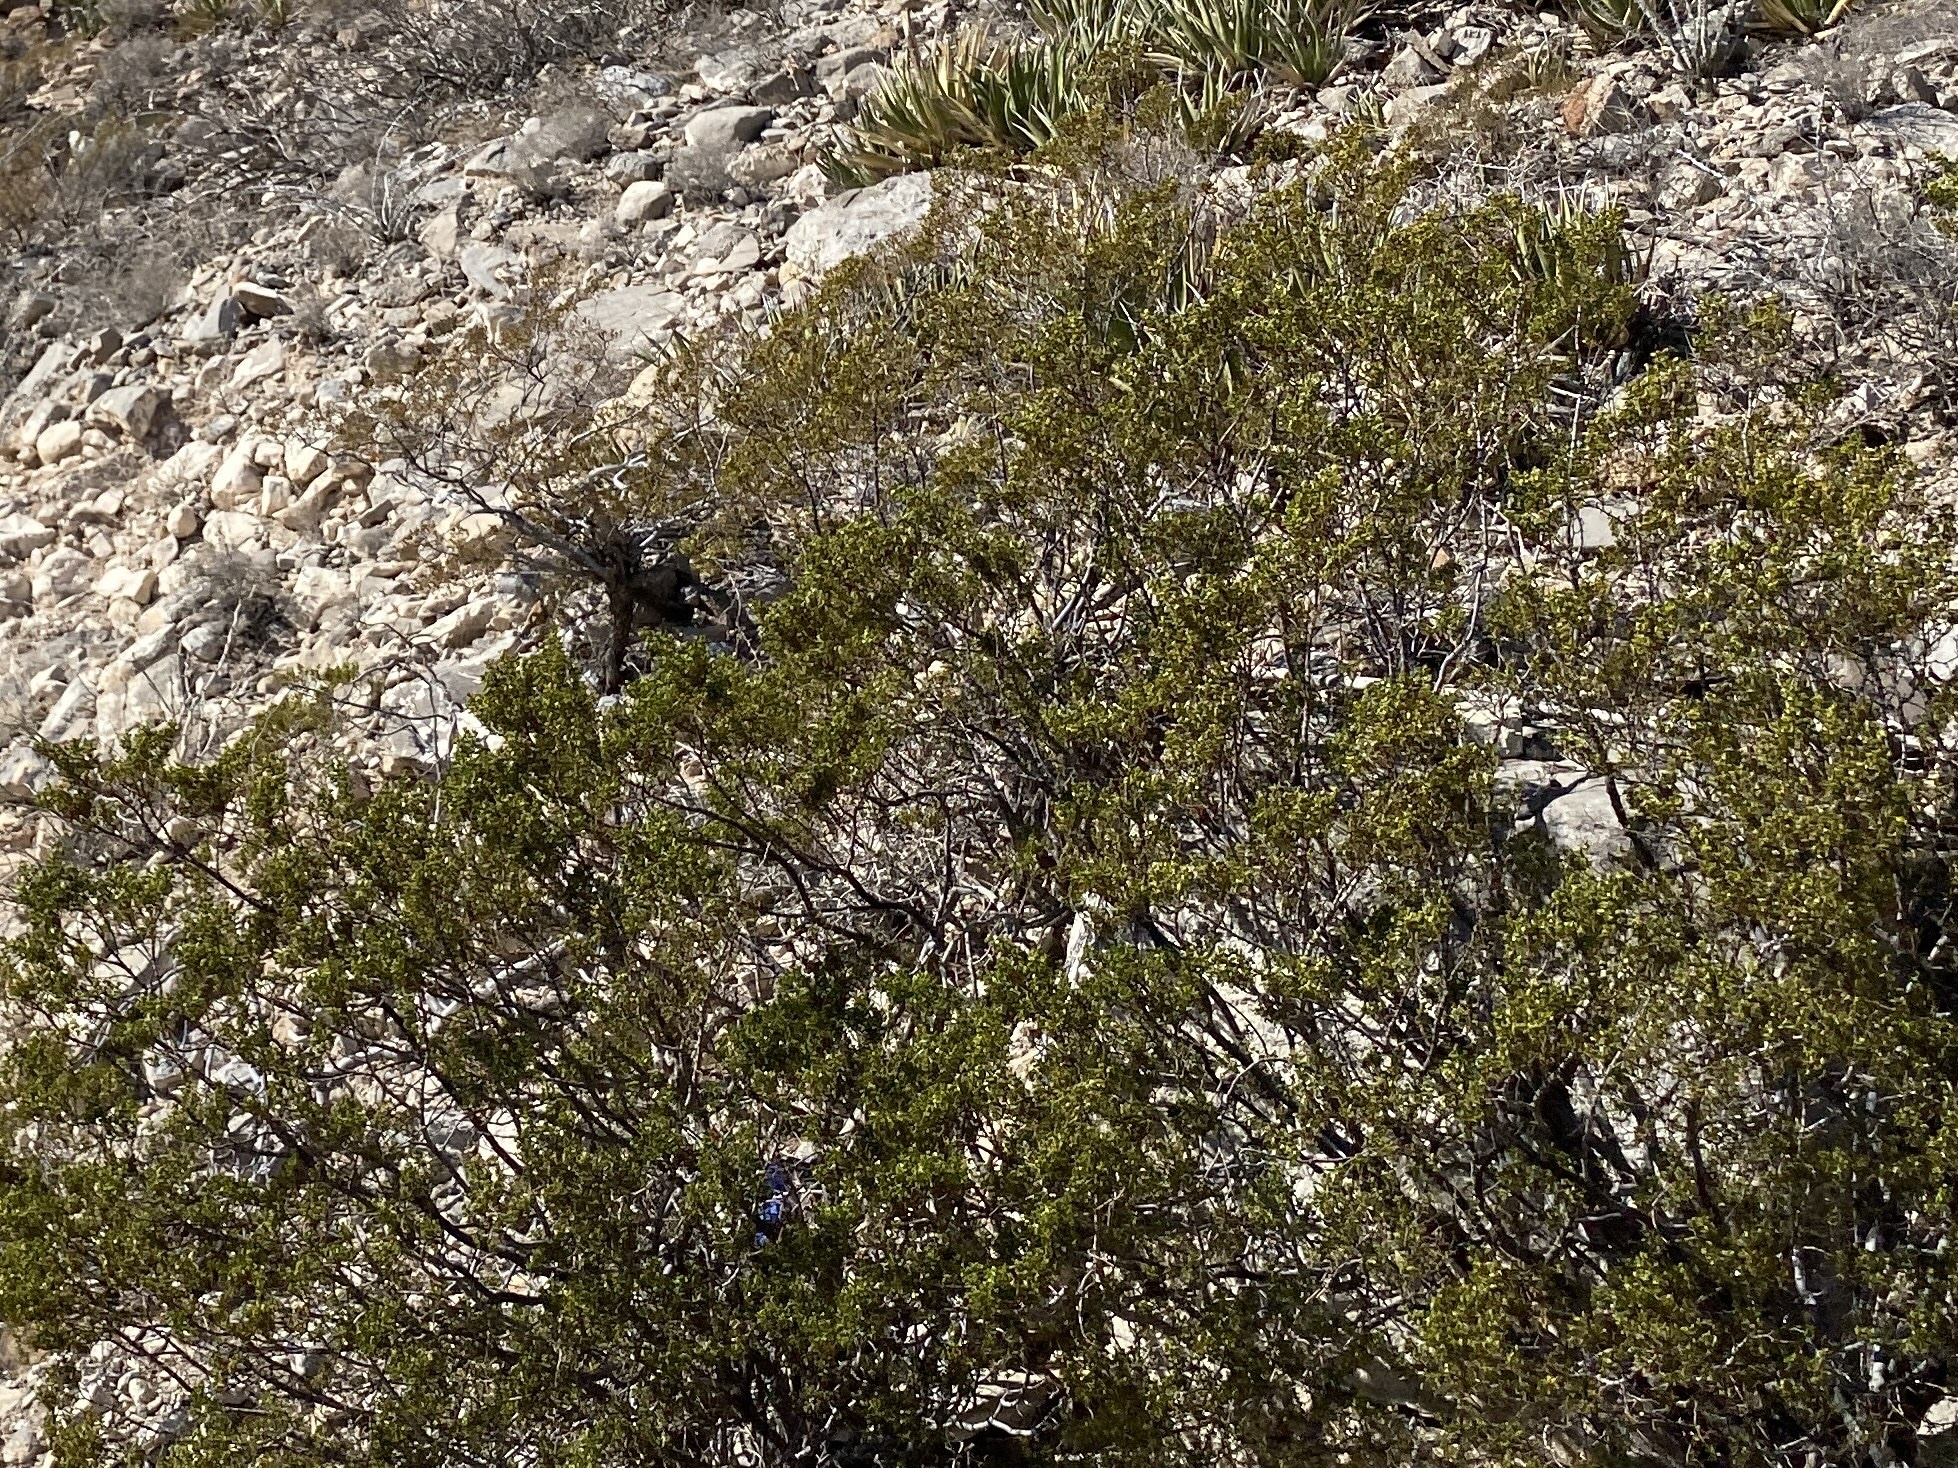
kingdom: Plantae
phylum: Tracheophyta
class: Magnoliopsida
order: Zygophyllales
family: Zygophyllaceae
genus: Larrea
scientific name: Larrea tridentata
